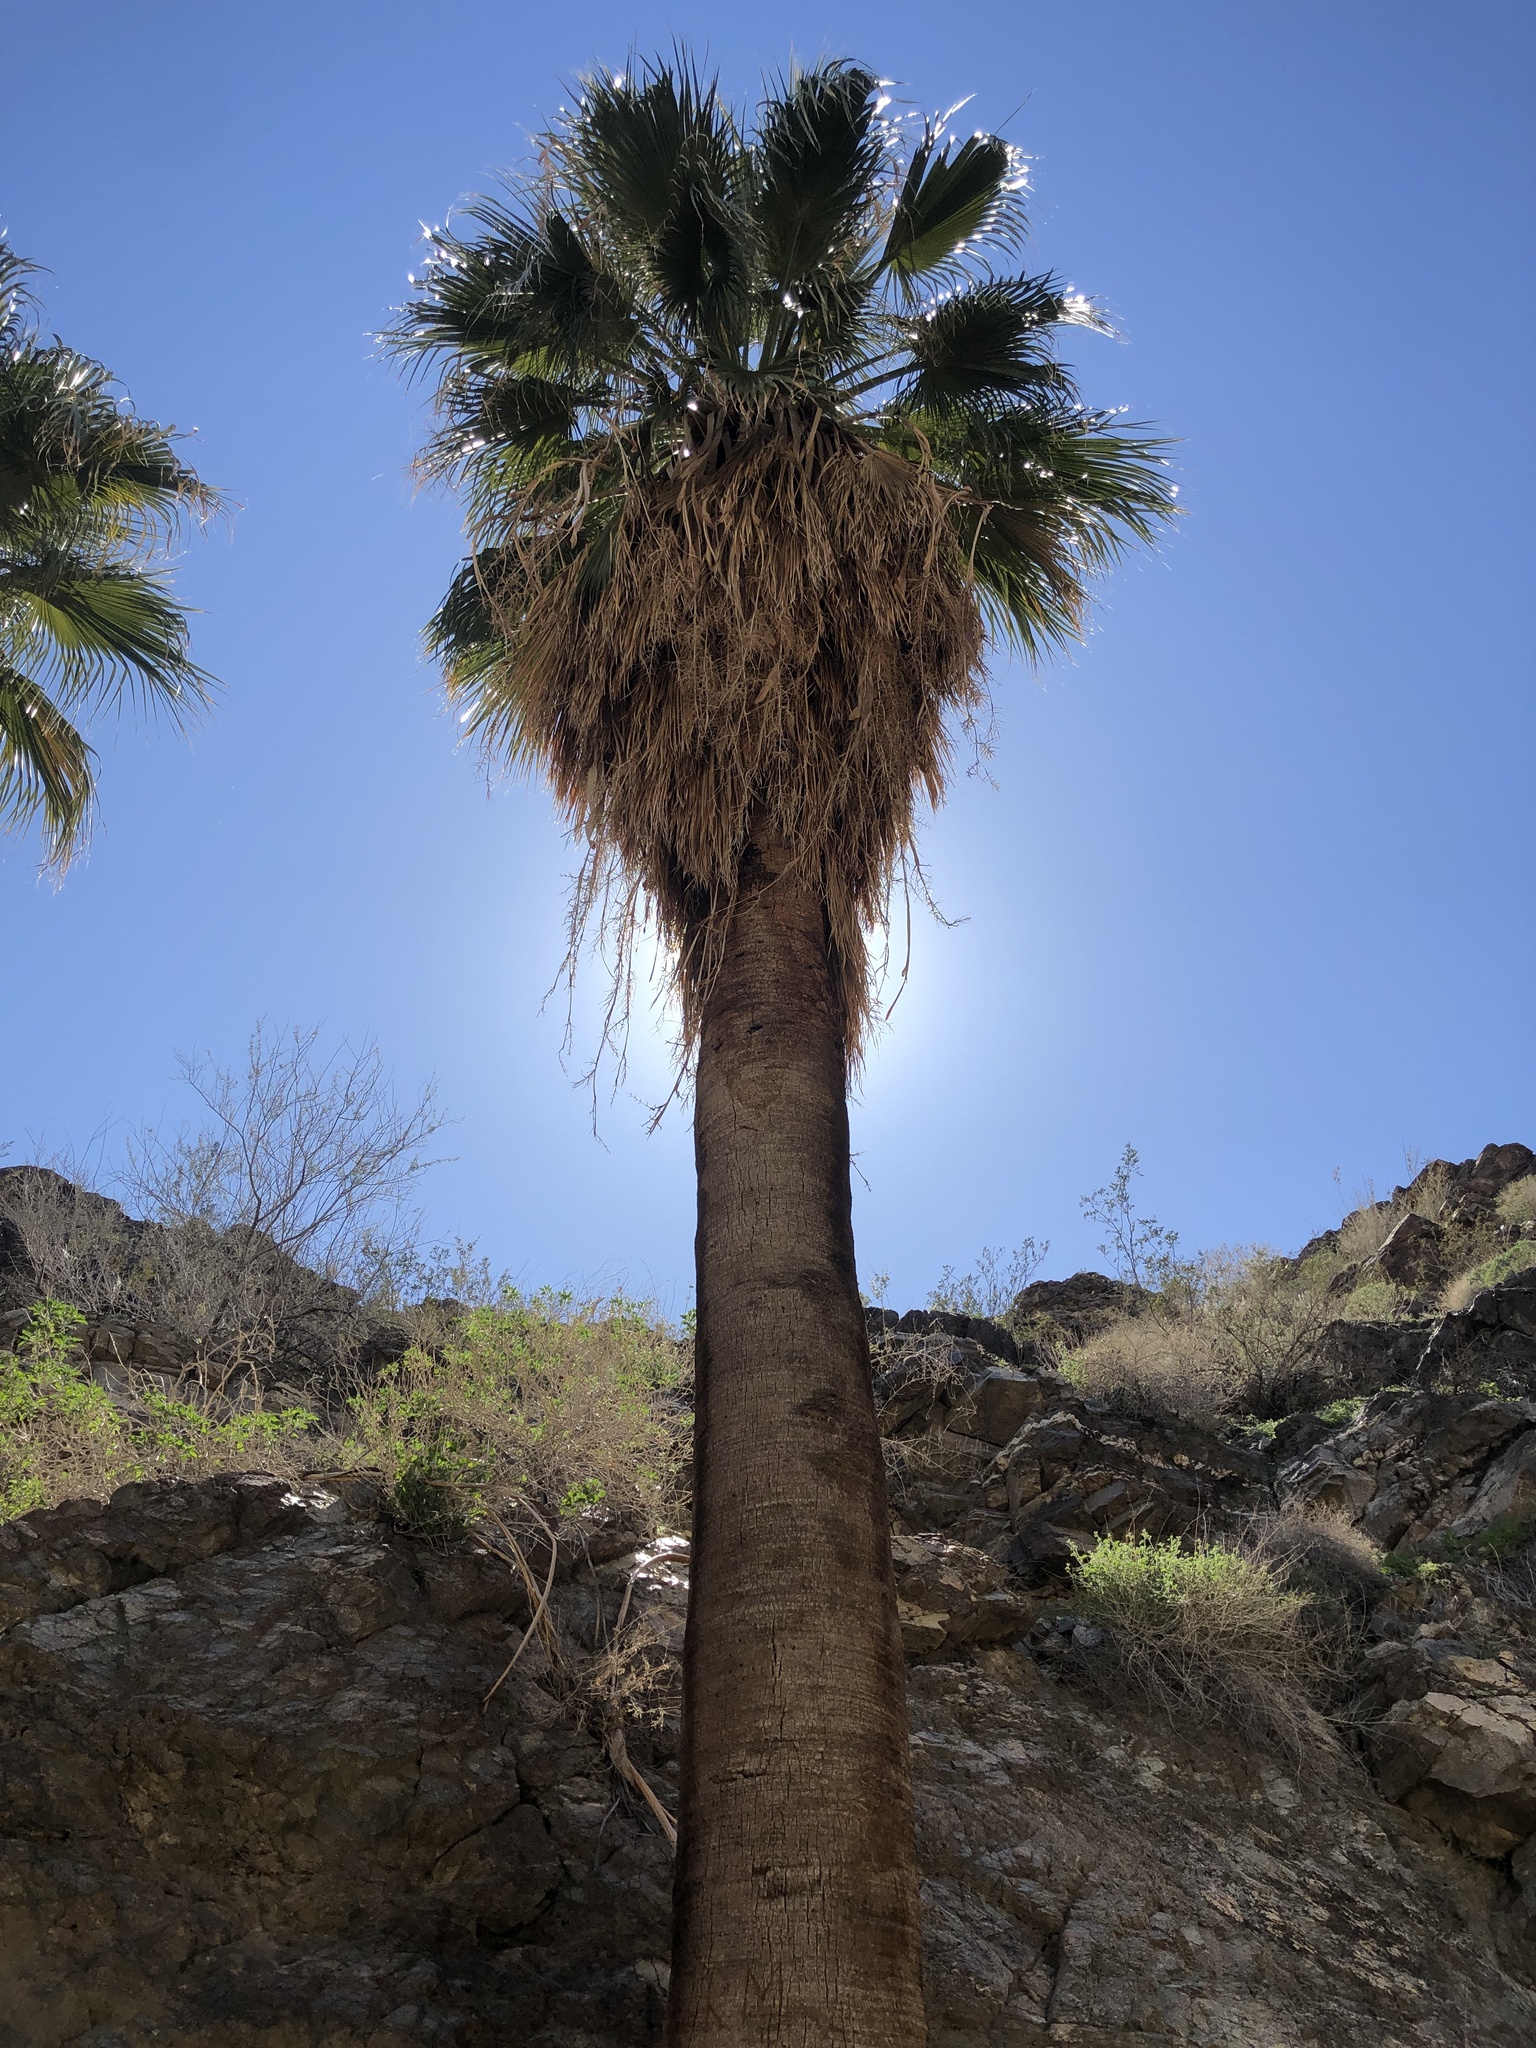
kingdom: Plantae
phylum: Tracheophyta
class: Liliopsida
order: Arecales
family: Arecaceae
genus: Washingtonia
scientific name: Washingtonia filifera
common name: California fan palm
